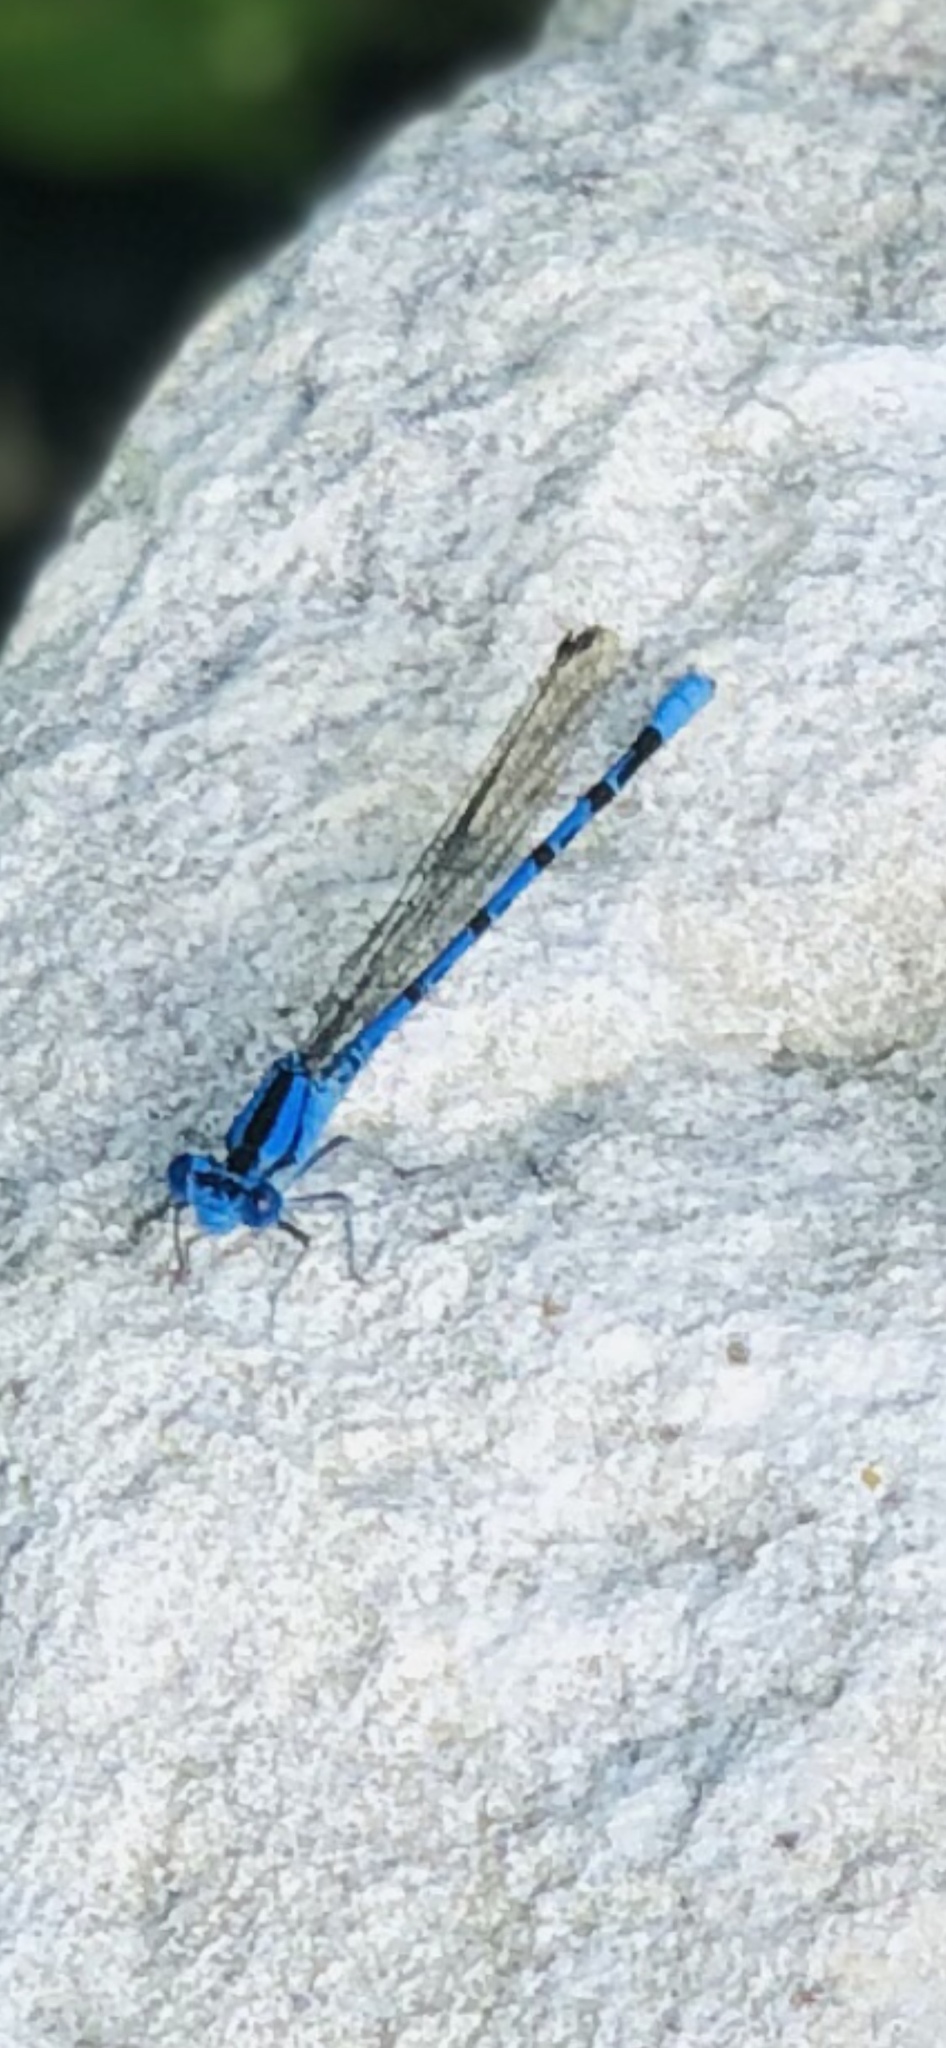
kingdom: Animalia
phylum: Arthropoda
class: Insecta
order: Odonata
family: Coenagrionidae
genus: Argia
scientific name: Argia funebris
